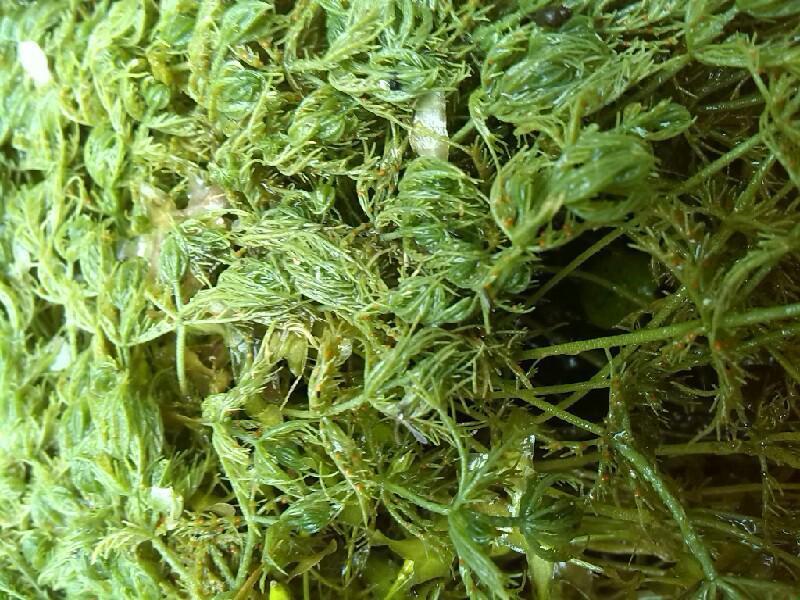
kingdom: Plantae
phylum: Charophyta
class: Charophyceae
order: Charales
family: Characeae
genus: Chara
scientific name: Chara vulgaris
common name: Common stonewort
